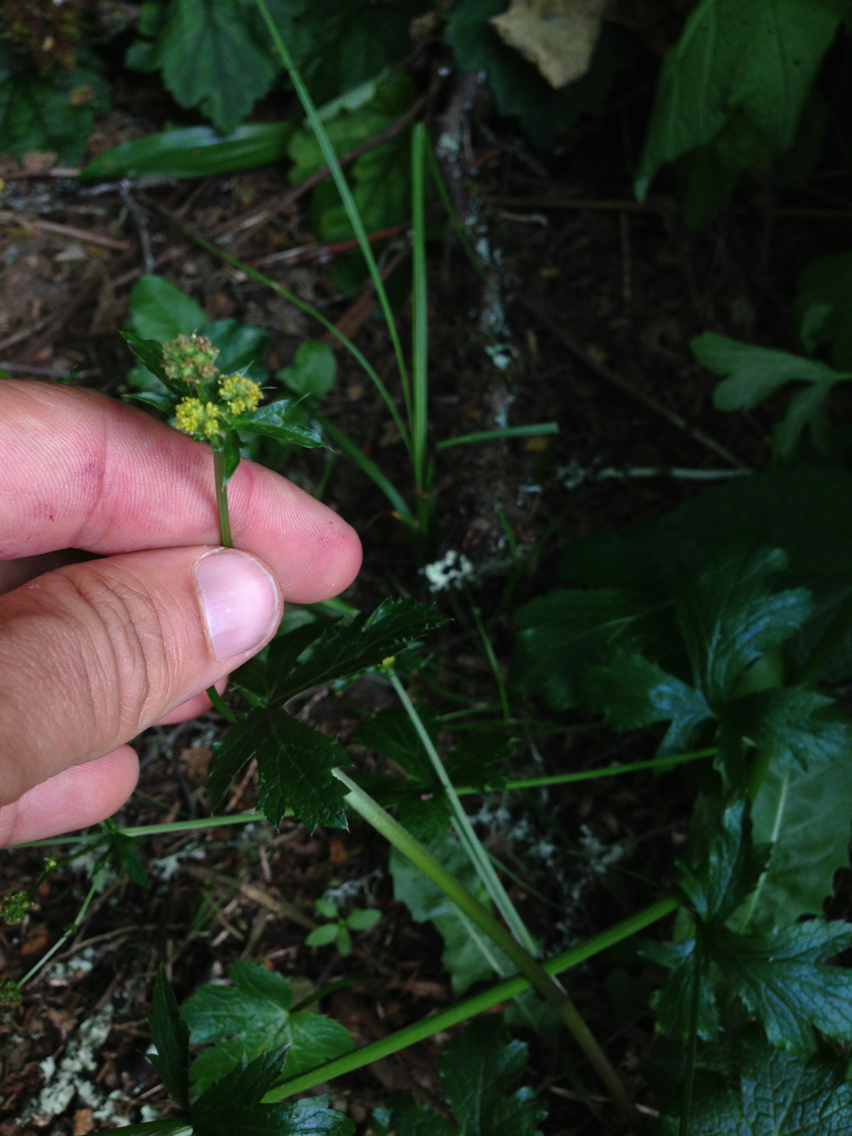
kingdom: Plantae
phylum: Tracheophyta
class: Magnoliopsida
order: Apiales
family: Apiaceae
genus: Sanicula
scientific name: Sanicula crassicaulis
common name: Western snakeroot
